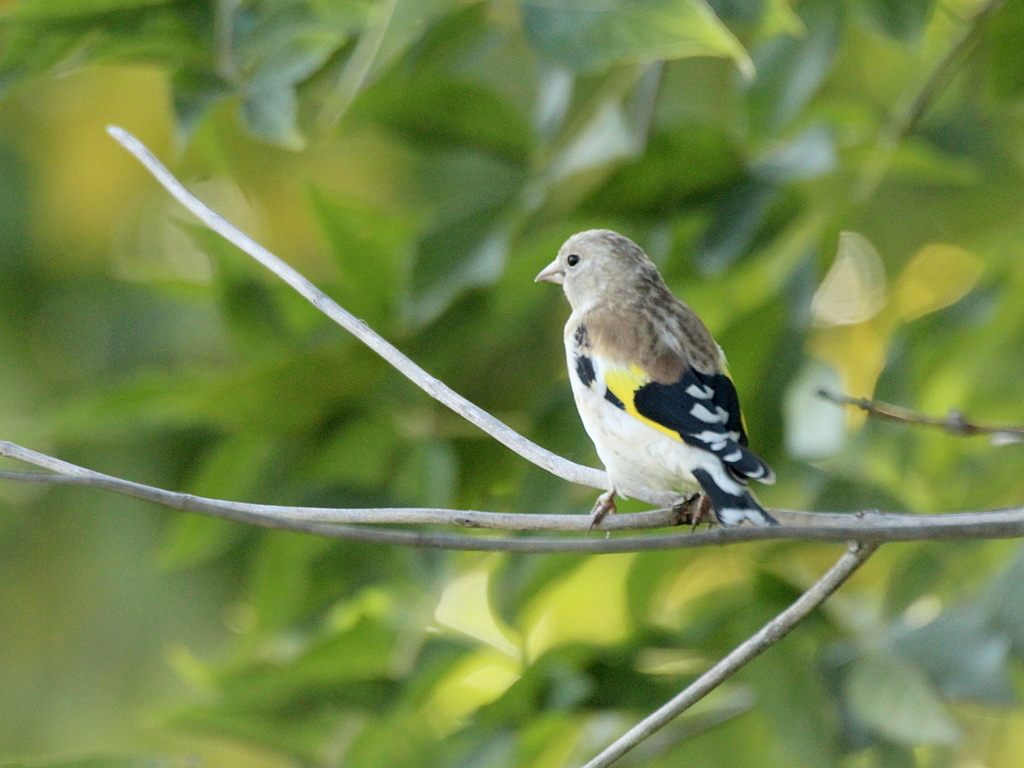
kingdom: Animalia
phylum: Chordata
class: Aves
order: Passeriformes
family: Fringillidae
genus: Carduelis
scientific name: Carduelis carduelis
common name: European goldfinch
